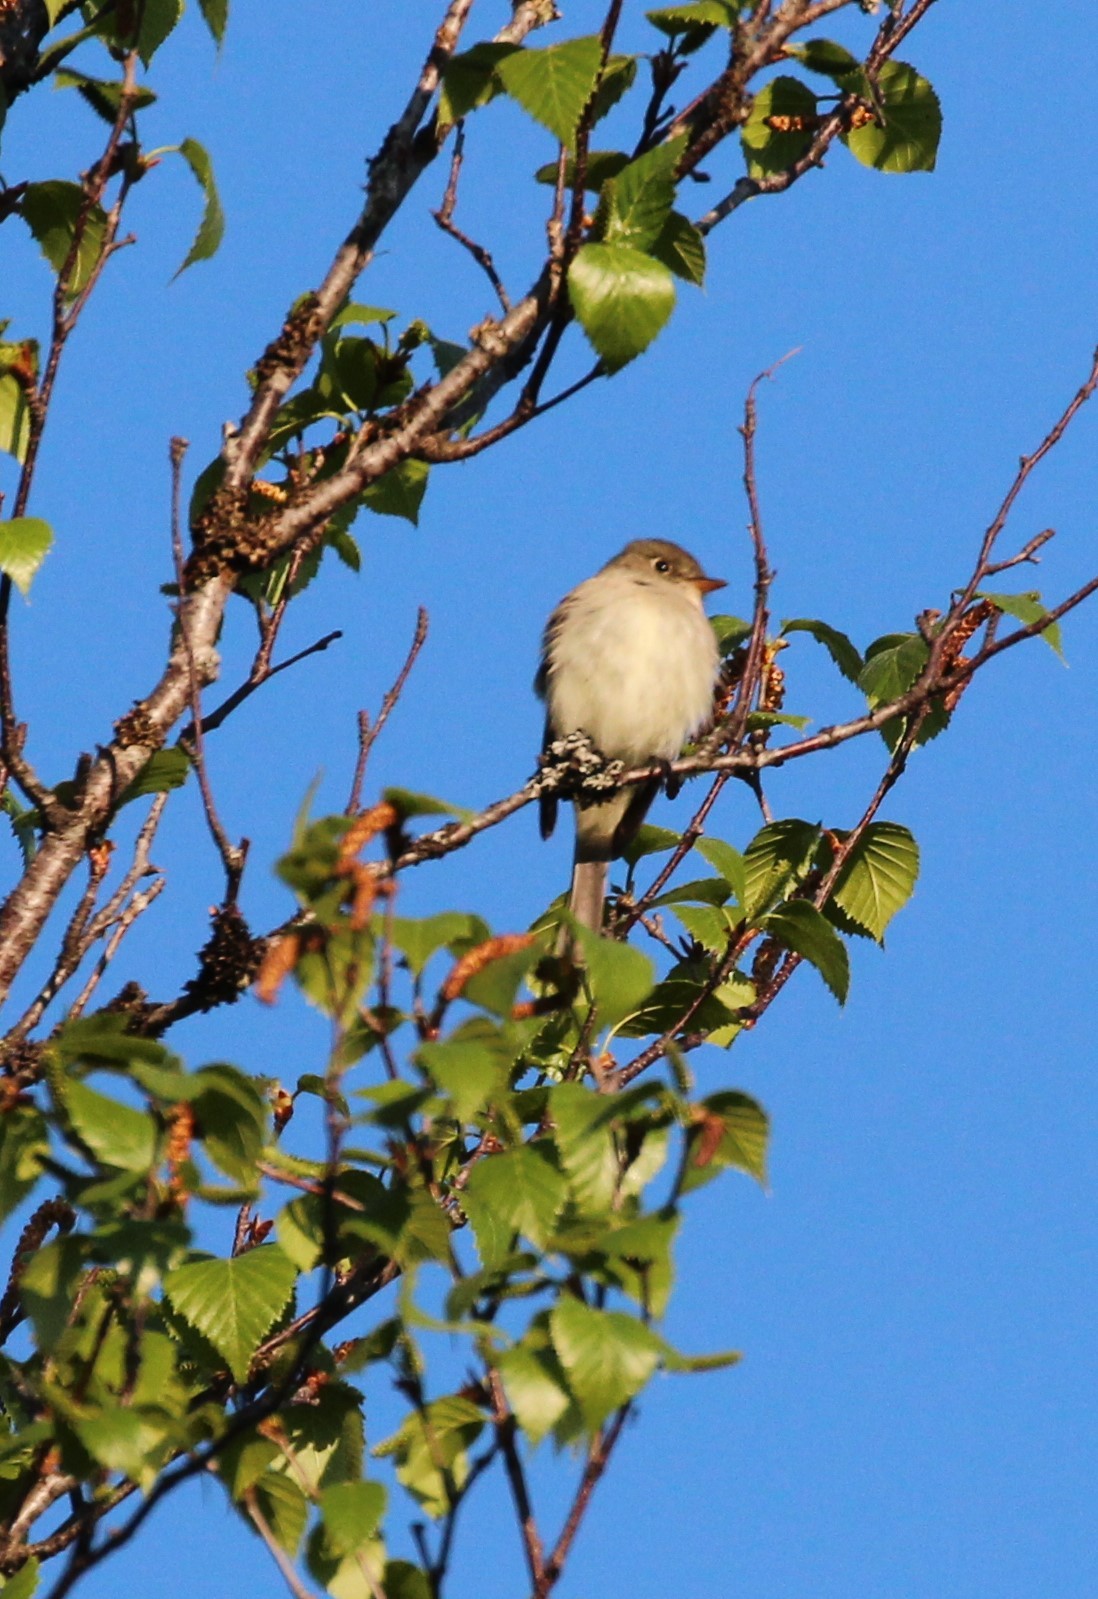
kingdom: Animalia
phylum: Chordata
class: Aves
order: Passeriformes
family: Tyrannidae
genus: Empidonax
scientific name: Empidonax alnorum
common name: Alder flycatcher
